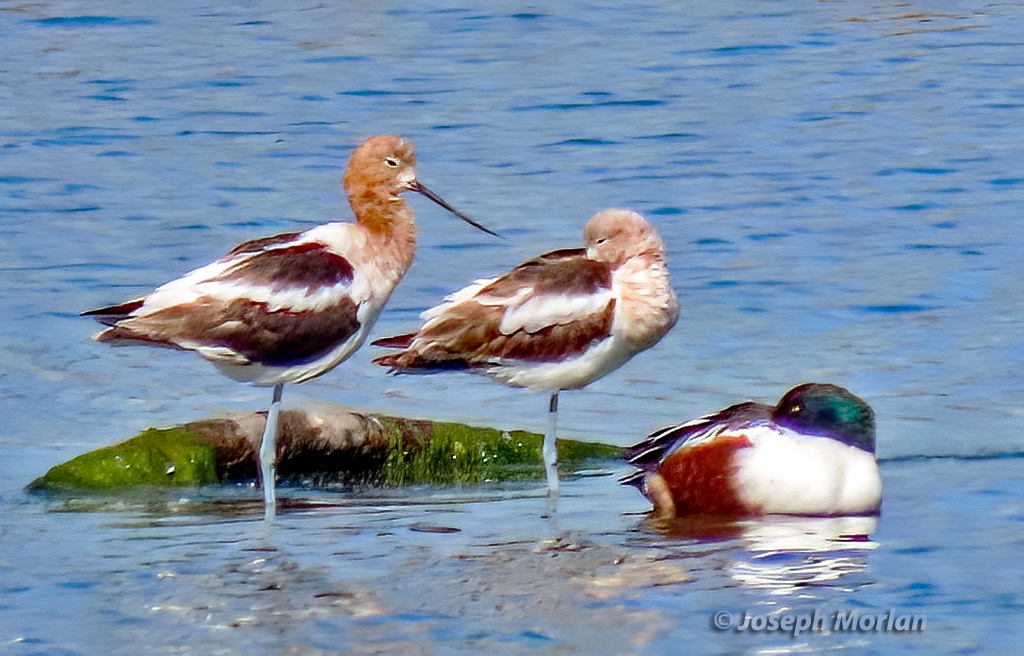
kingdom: Animalia
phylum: Chordata
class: Aves
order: Charadriiformes
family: Recurvirostridae
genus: Recurvirostra
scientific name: Recurvirostra americana
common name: American avocet
